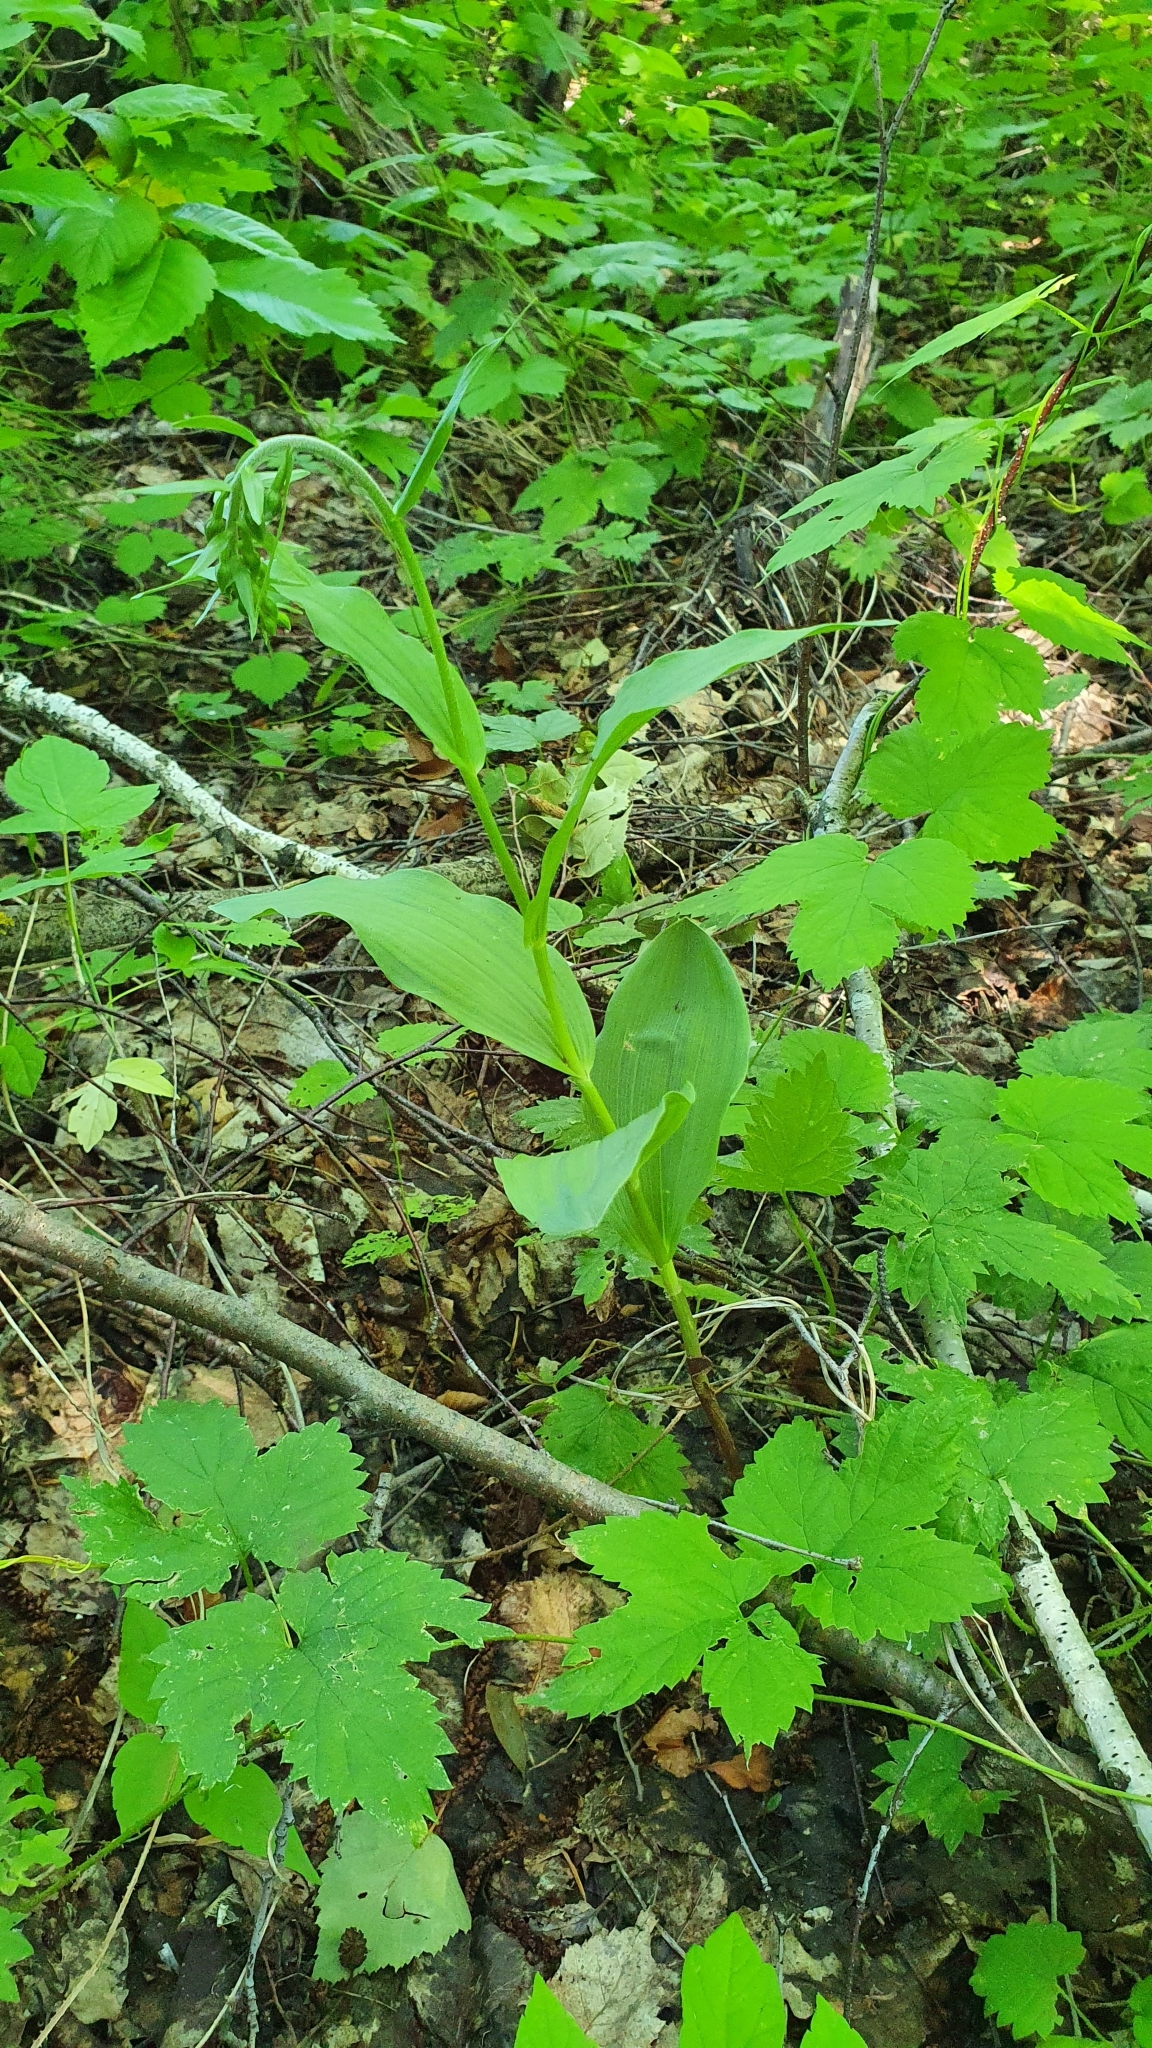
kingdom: Plantae
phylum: Tracheophyta
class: Liliopsida
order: Asparagales
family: Orchidaceae
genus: Epipactis
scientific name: Epipactis helleborine
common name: Broad-leaved helleborine
